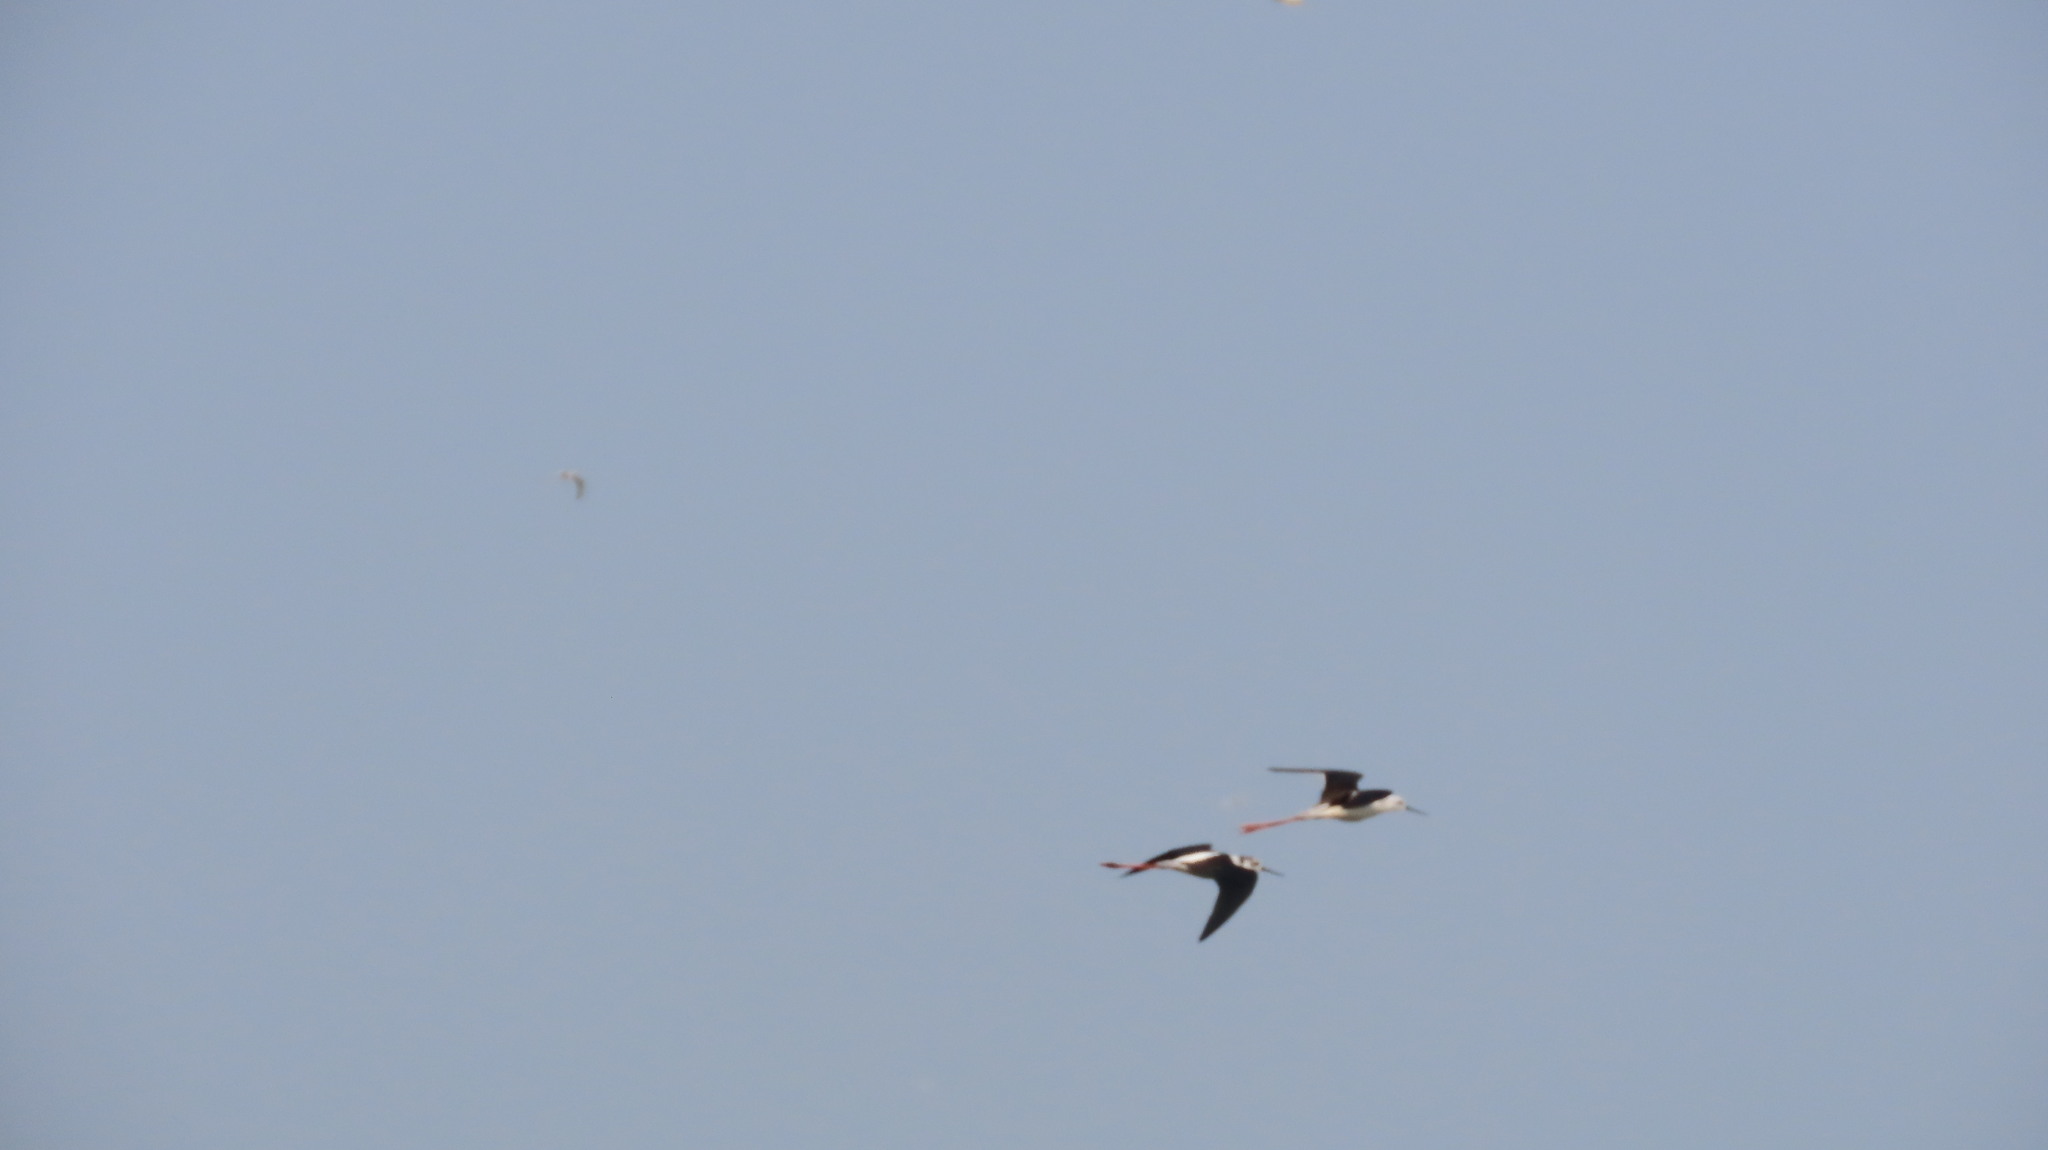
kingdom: Animalia
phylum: Chordata
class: Aves
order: Charadriiformes
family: Recurvirostridae
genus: Himantopus
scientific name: Himantopus himantopus
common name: Black-winged stilt
